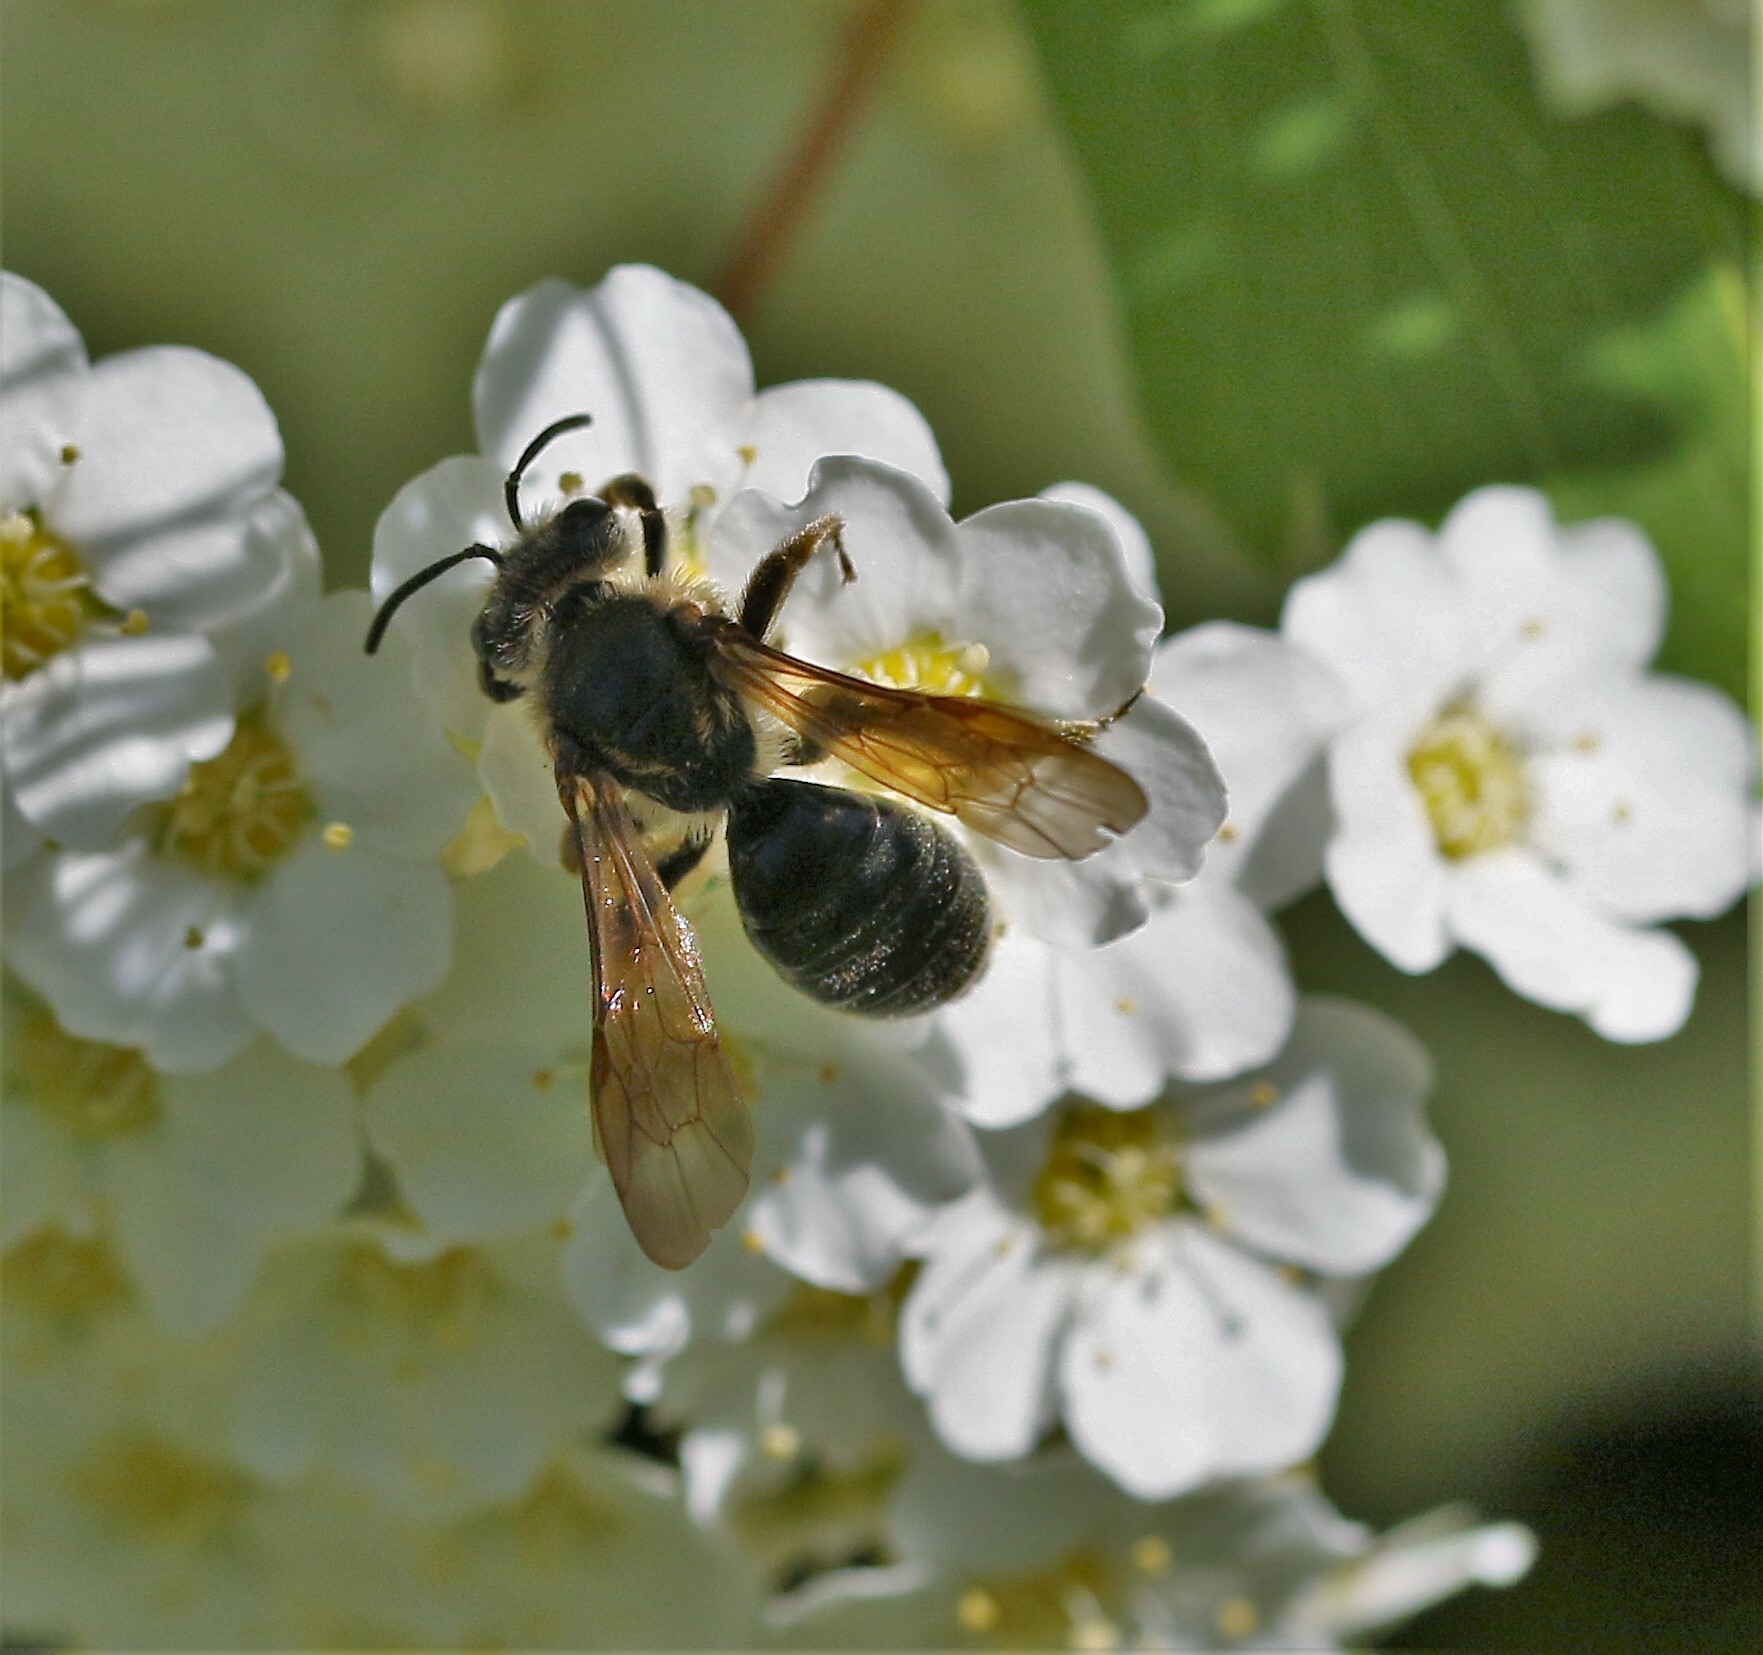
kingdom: Animalia
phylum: Arthropoda
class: Insecta
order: Hymenoptera
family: Andrenidae
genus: Andrena
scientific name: Andrena crataegi
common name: Hawthorn mining bee
